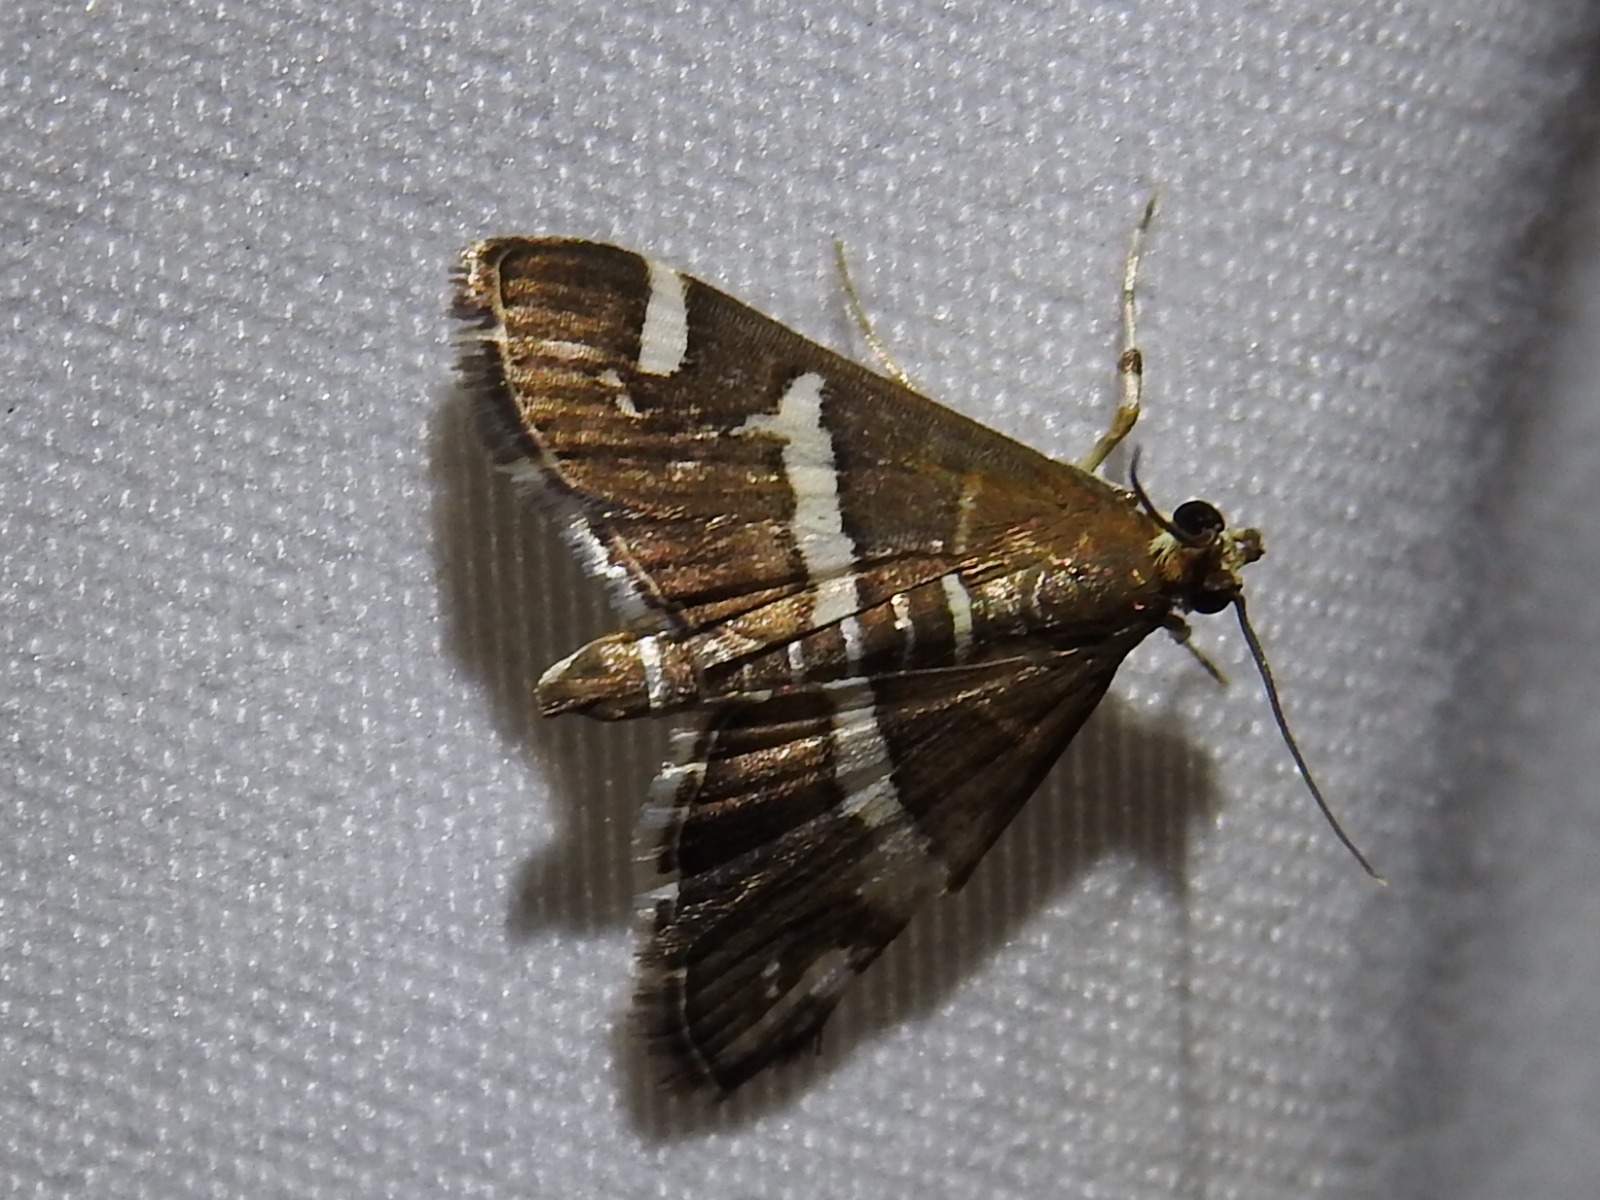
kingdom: Animalia
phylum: Arthropoda
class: Insecta
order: Lepidoptera
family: Crambidae
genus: Spoladea
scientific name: Spoladea recurvalis
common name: Beet webworm moth
